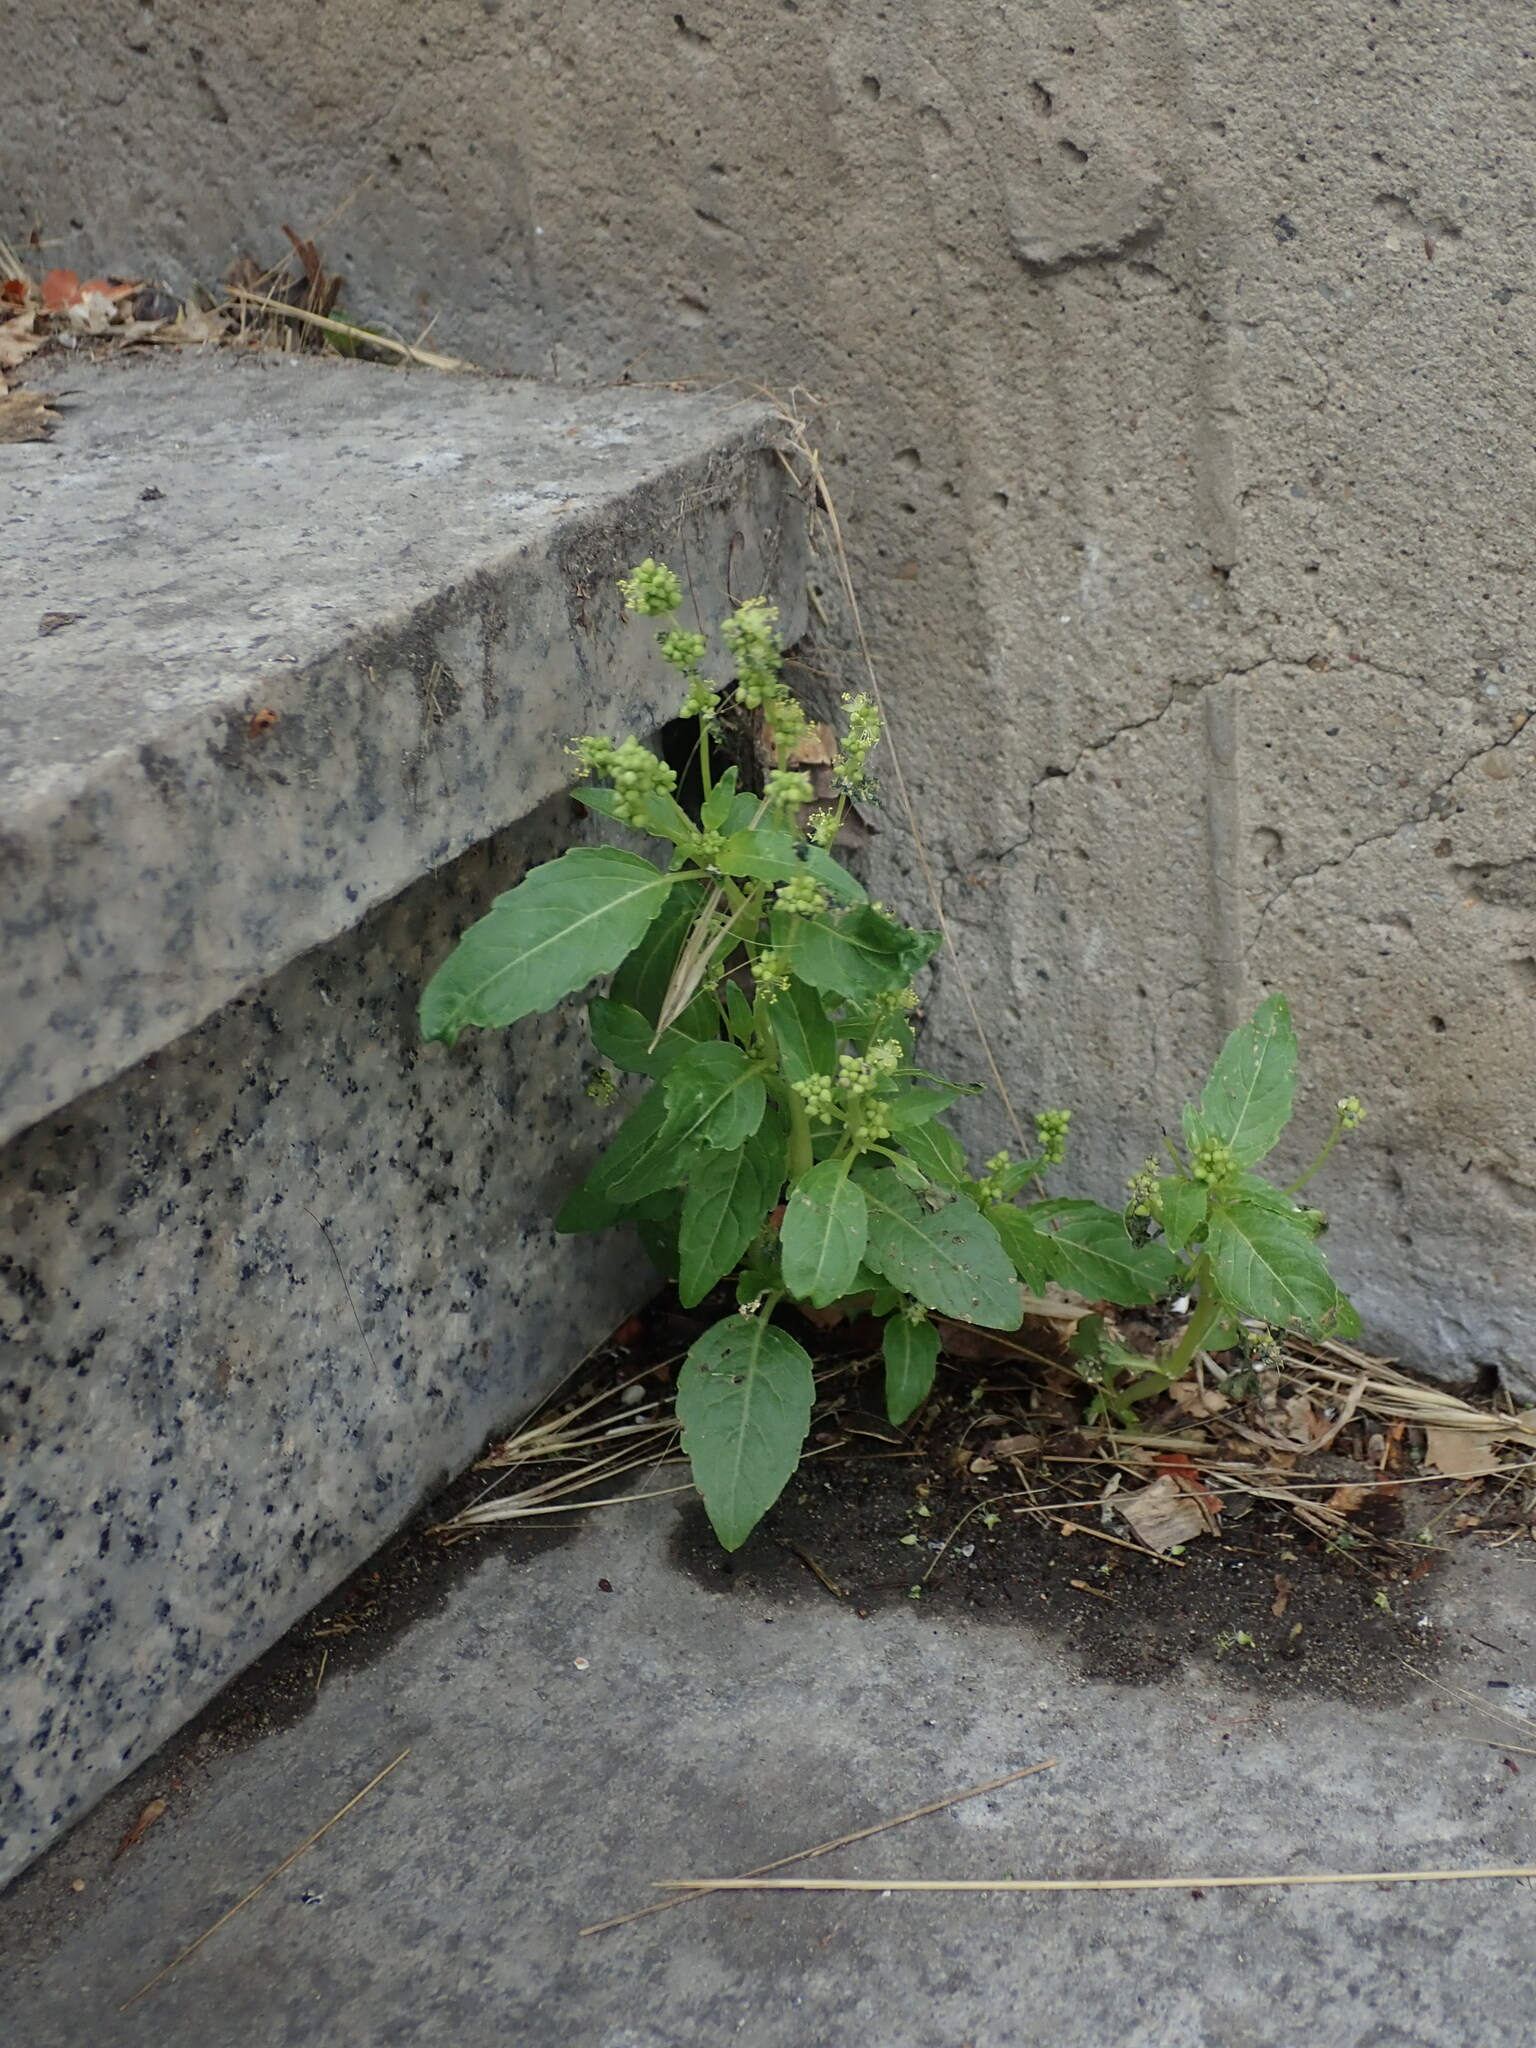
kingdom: Plantae
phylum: Tracheophyta
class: Magnoliopsida
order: Malpighiales
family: Euphorbiaceae
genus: Mercurialis
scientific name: Mercurialis annua
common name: Annual mercury
